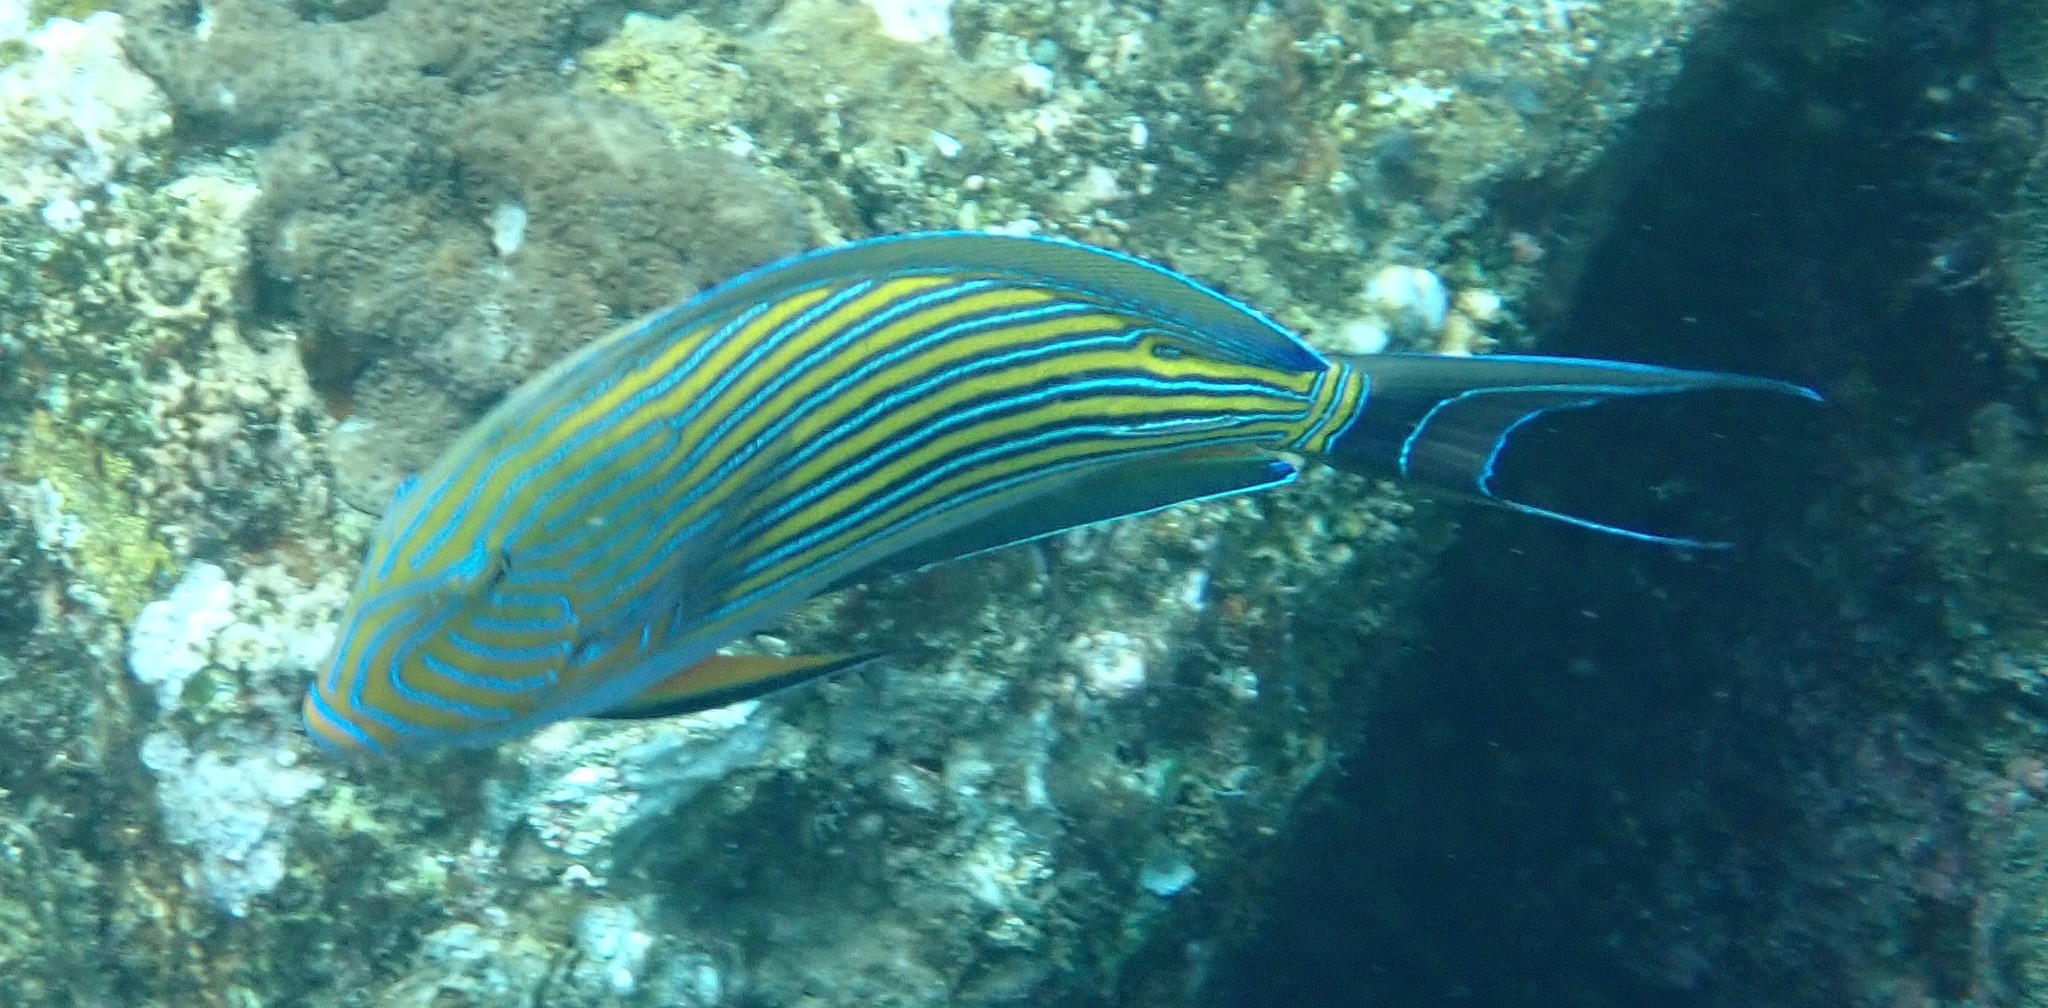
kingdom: Animalia
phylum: Chordata
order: Perciformes
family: Acanthuridae
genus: Acanthurus
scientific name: Acanthurus lineatus
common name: Striped surgeonfish
